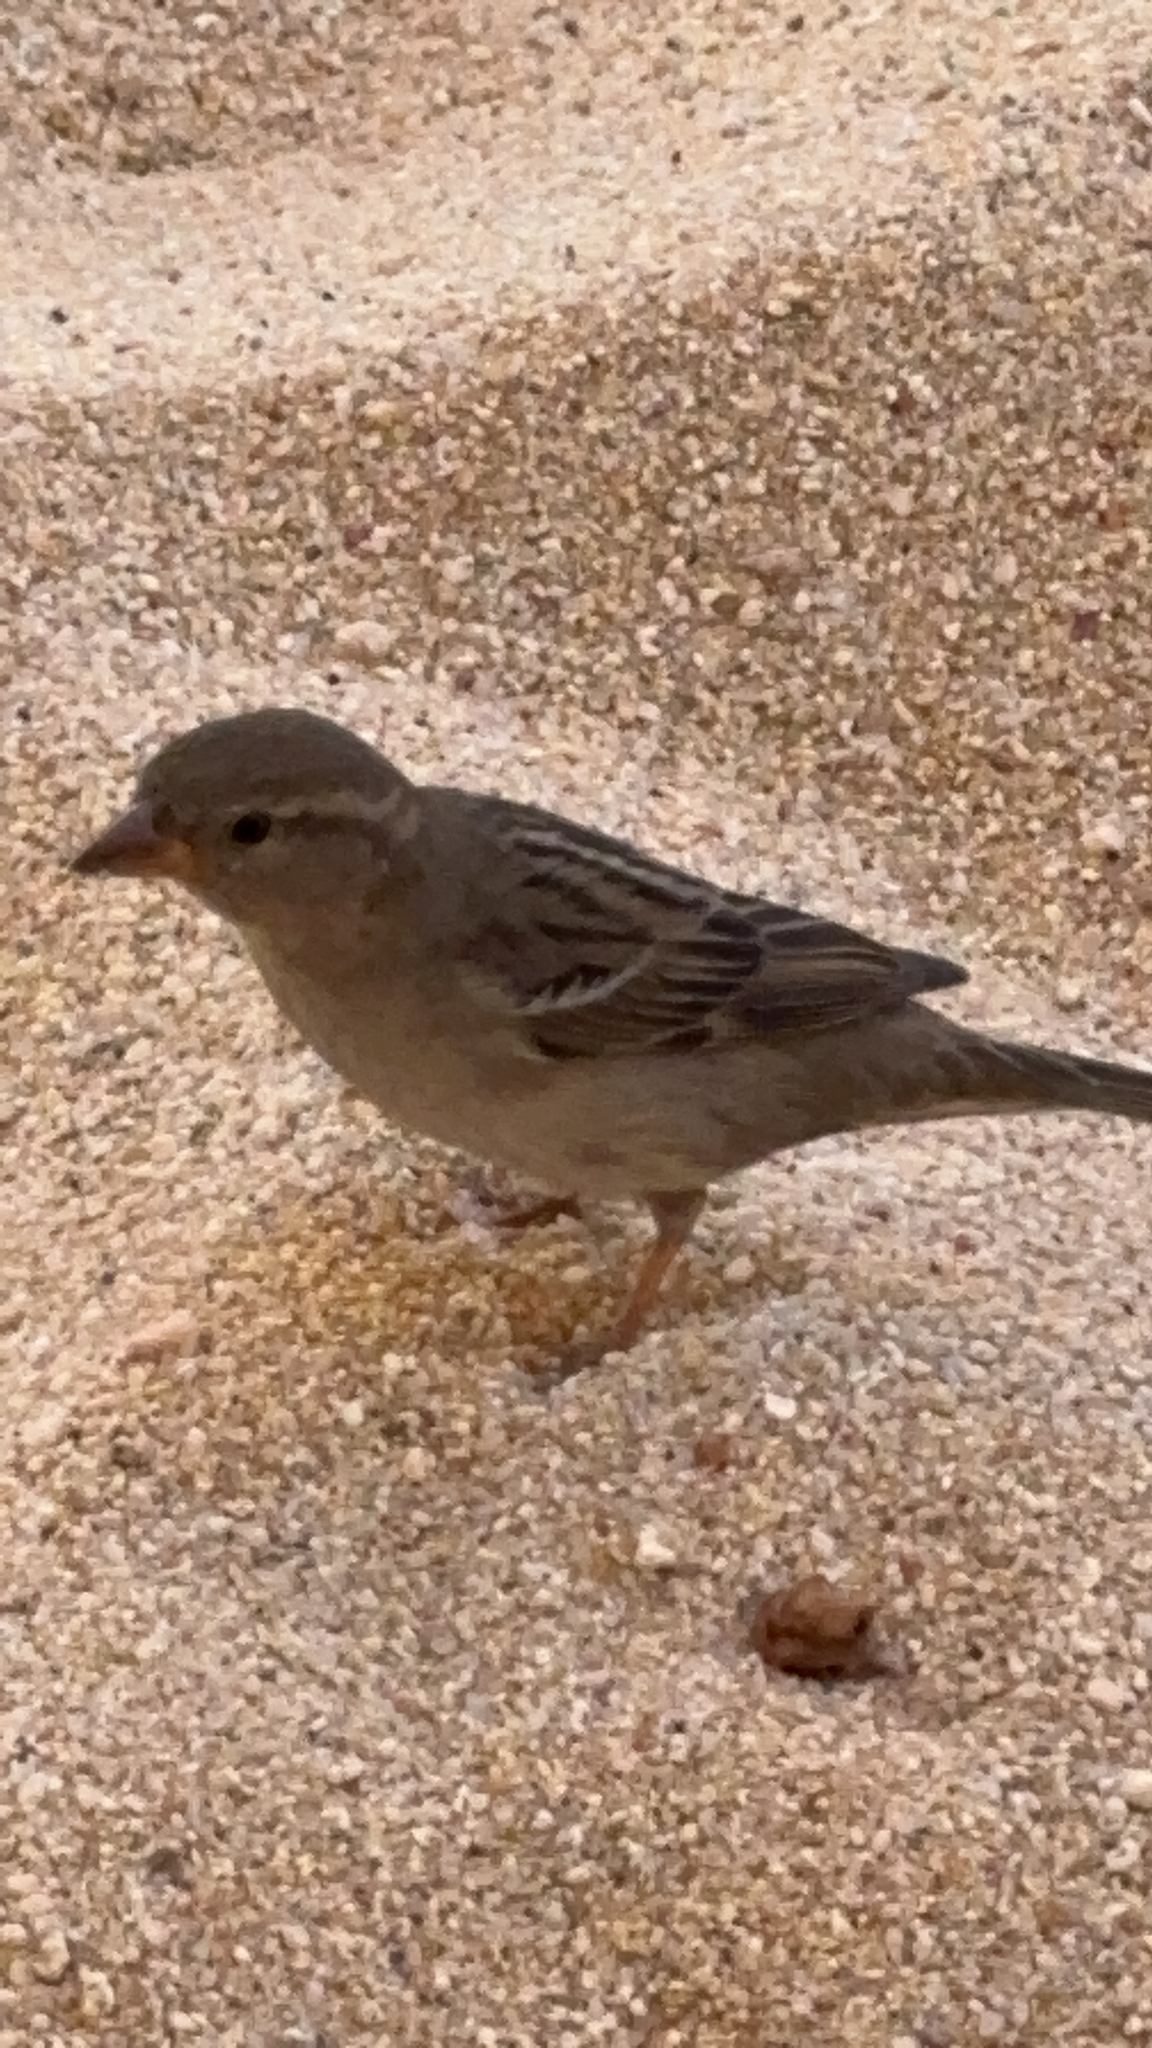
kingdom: Animalia
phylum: Chordata
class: Aves
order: Passeriformes
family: Passeridae
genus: Passer
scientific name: Passer domesticus
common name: House sparrow
